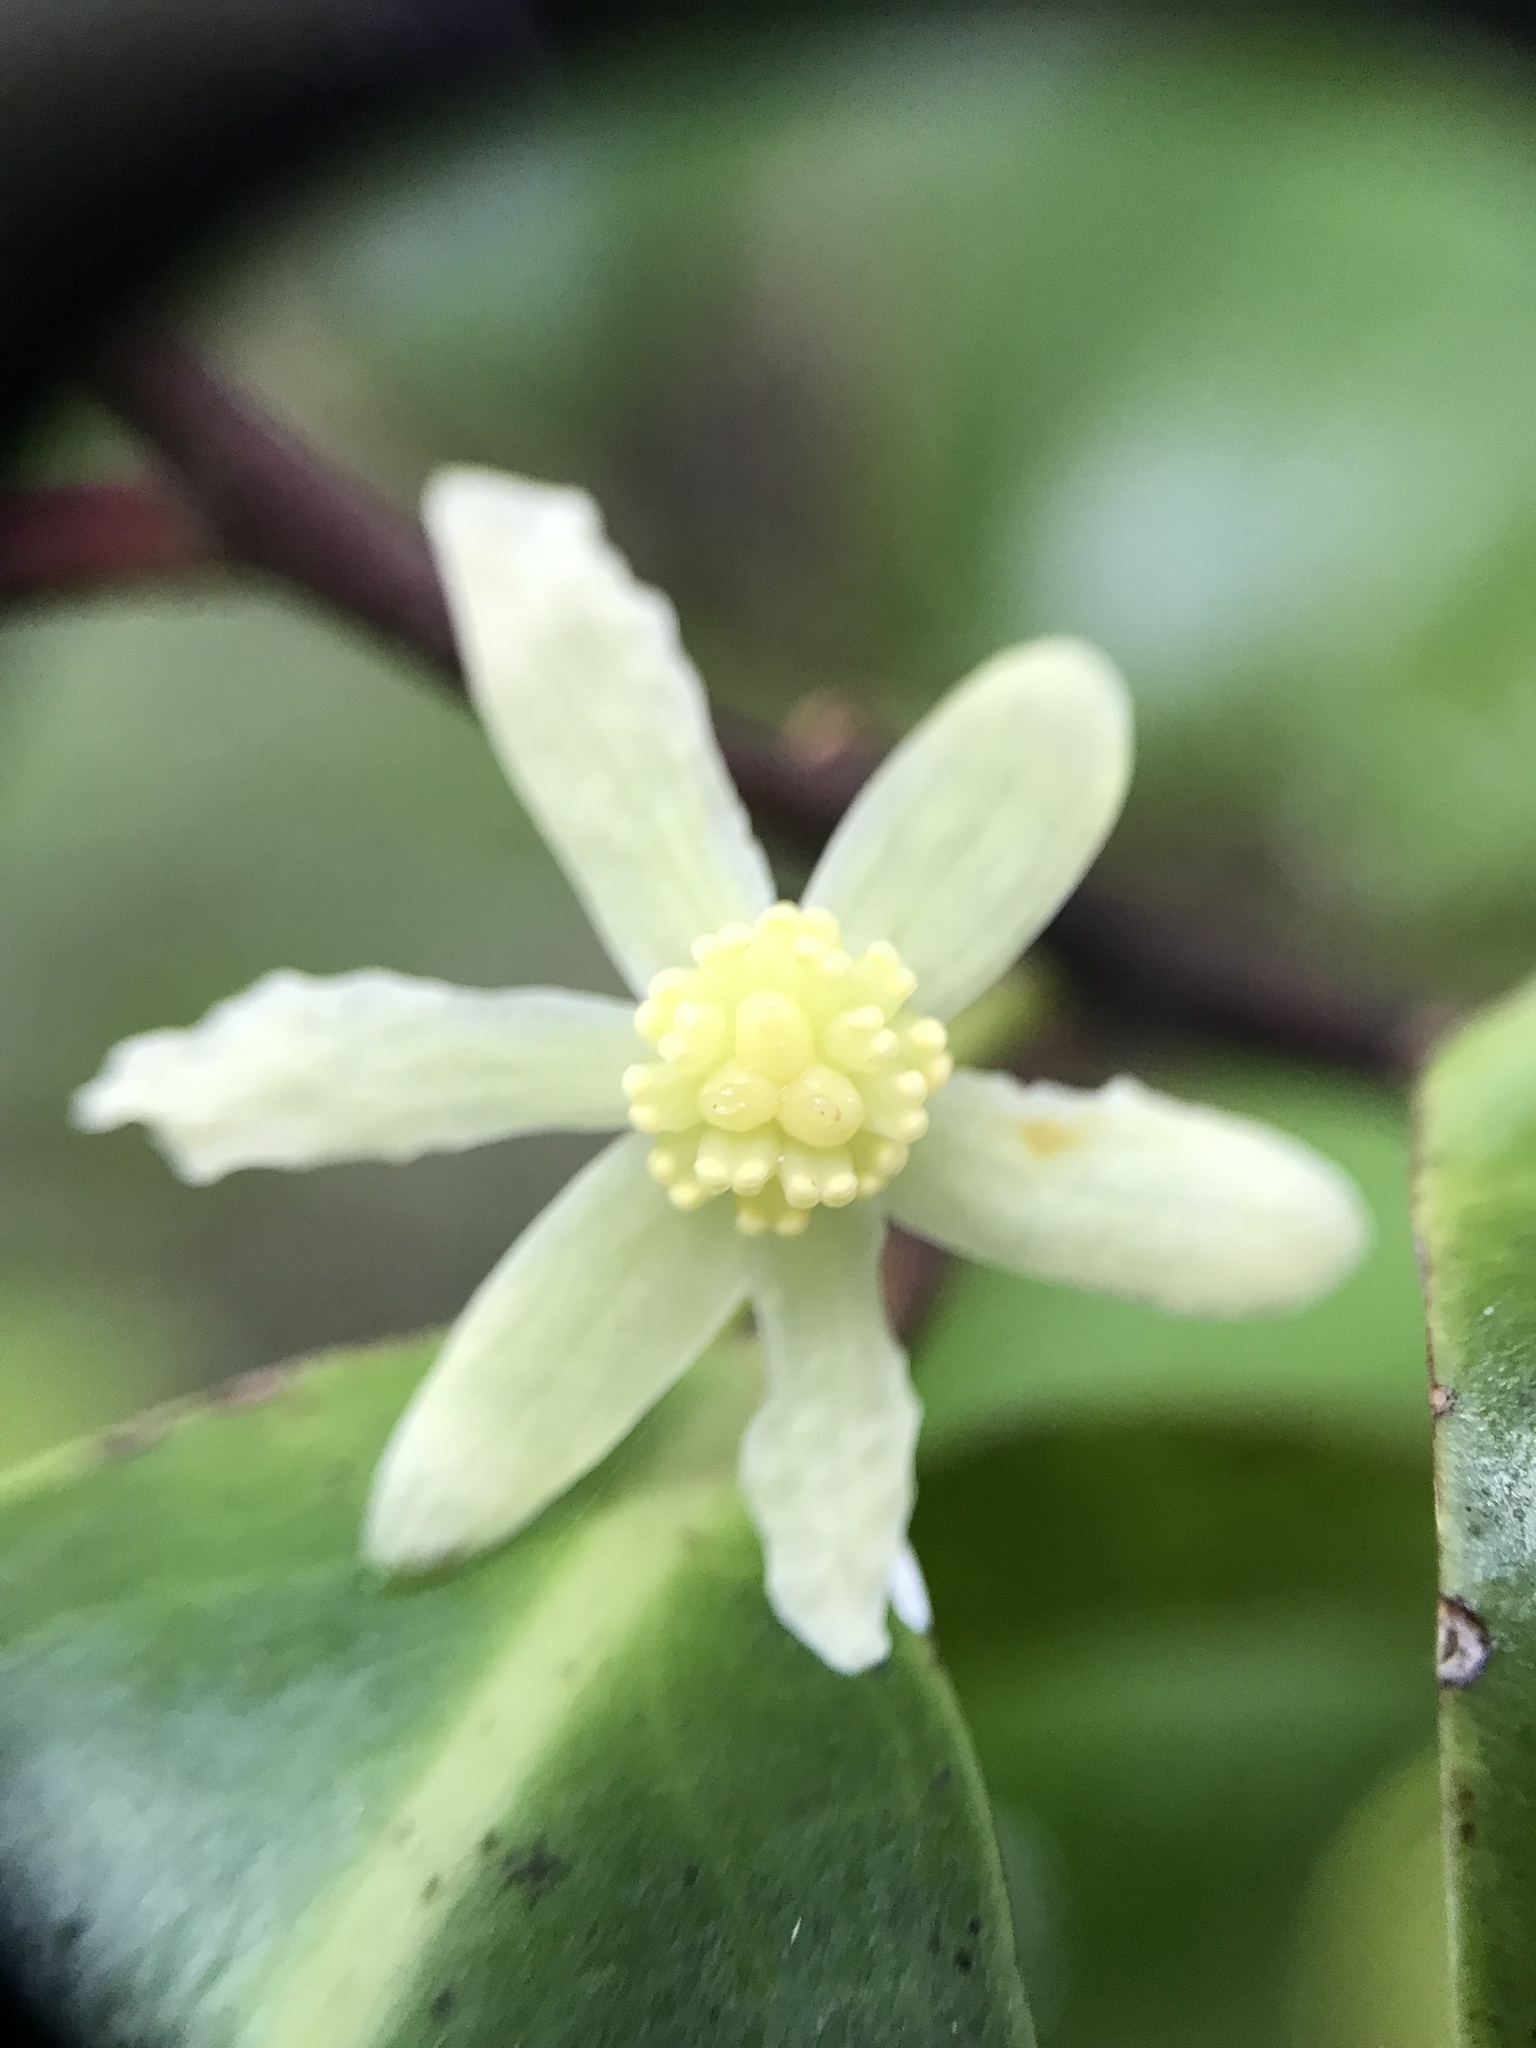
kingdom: Plantae
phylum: Tracheophyta
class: Magnoliopsida
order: Canellales
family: Winteraceae
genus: Pseudowintera
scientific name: Pseudowintera axillaris
